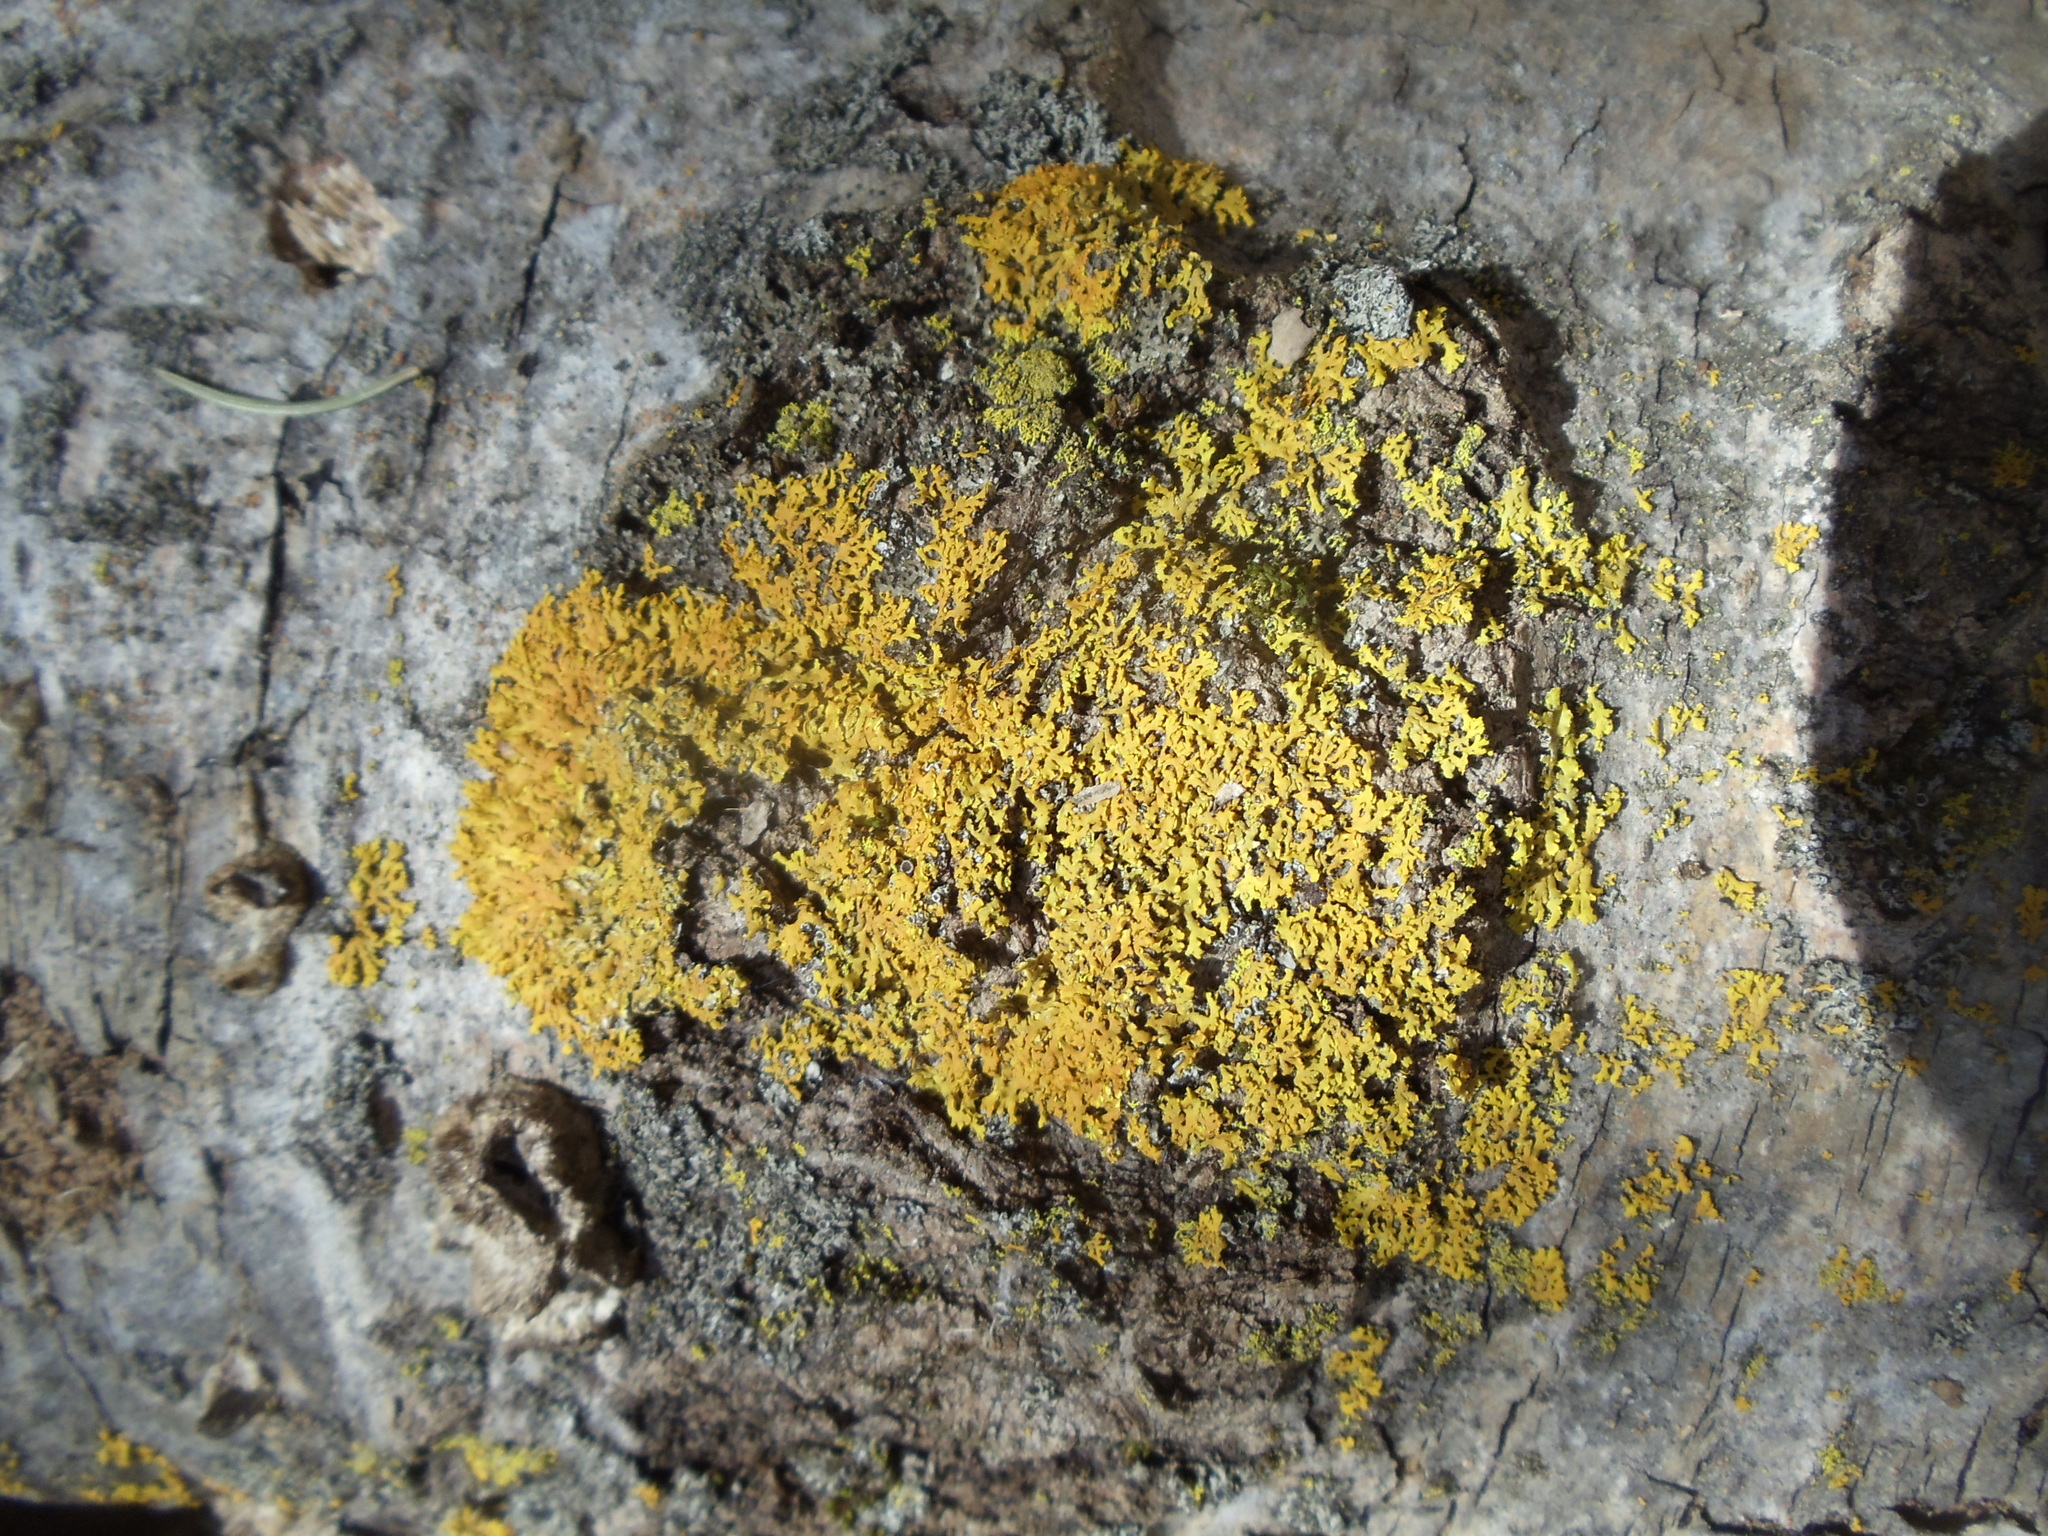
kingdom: Fungi
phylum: Ascomycota
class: Lecanoromycetes
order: Teloschistales
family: Teloschistaceae
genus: Gallowayella
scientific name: Gallowayella weberi
